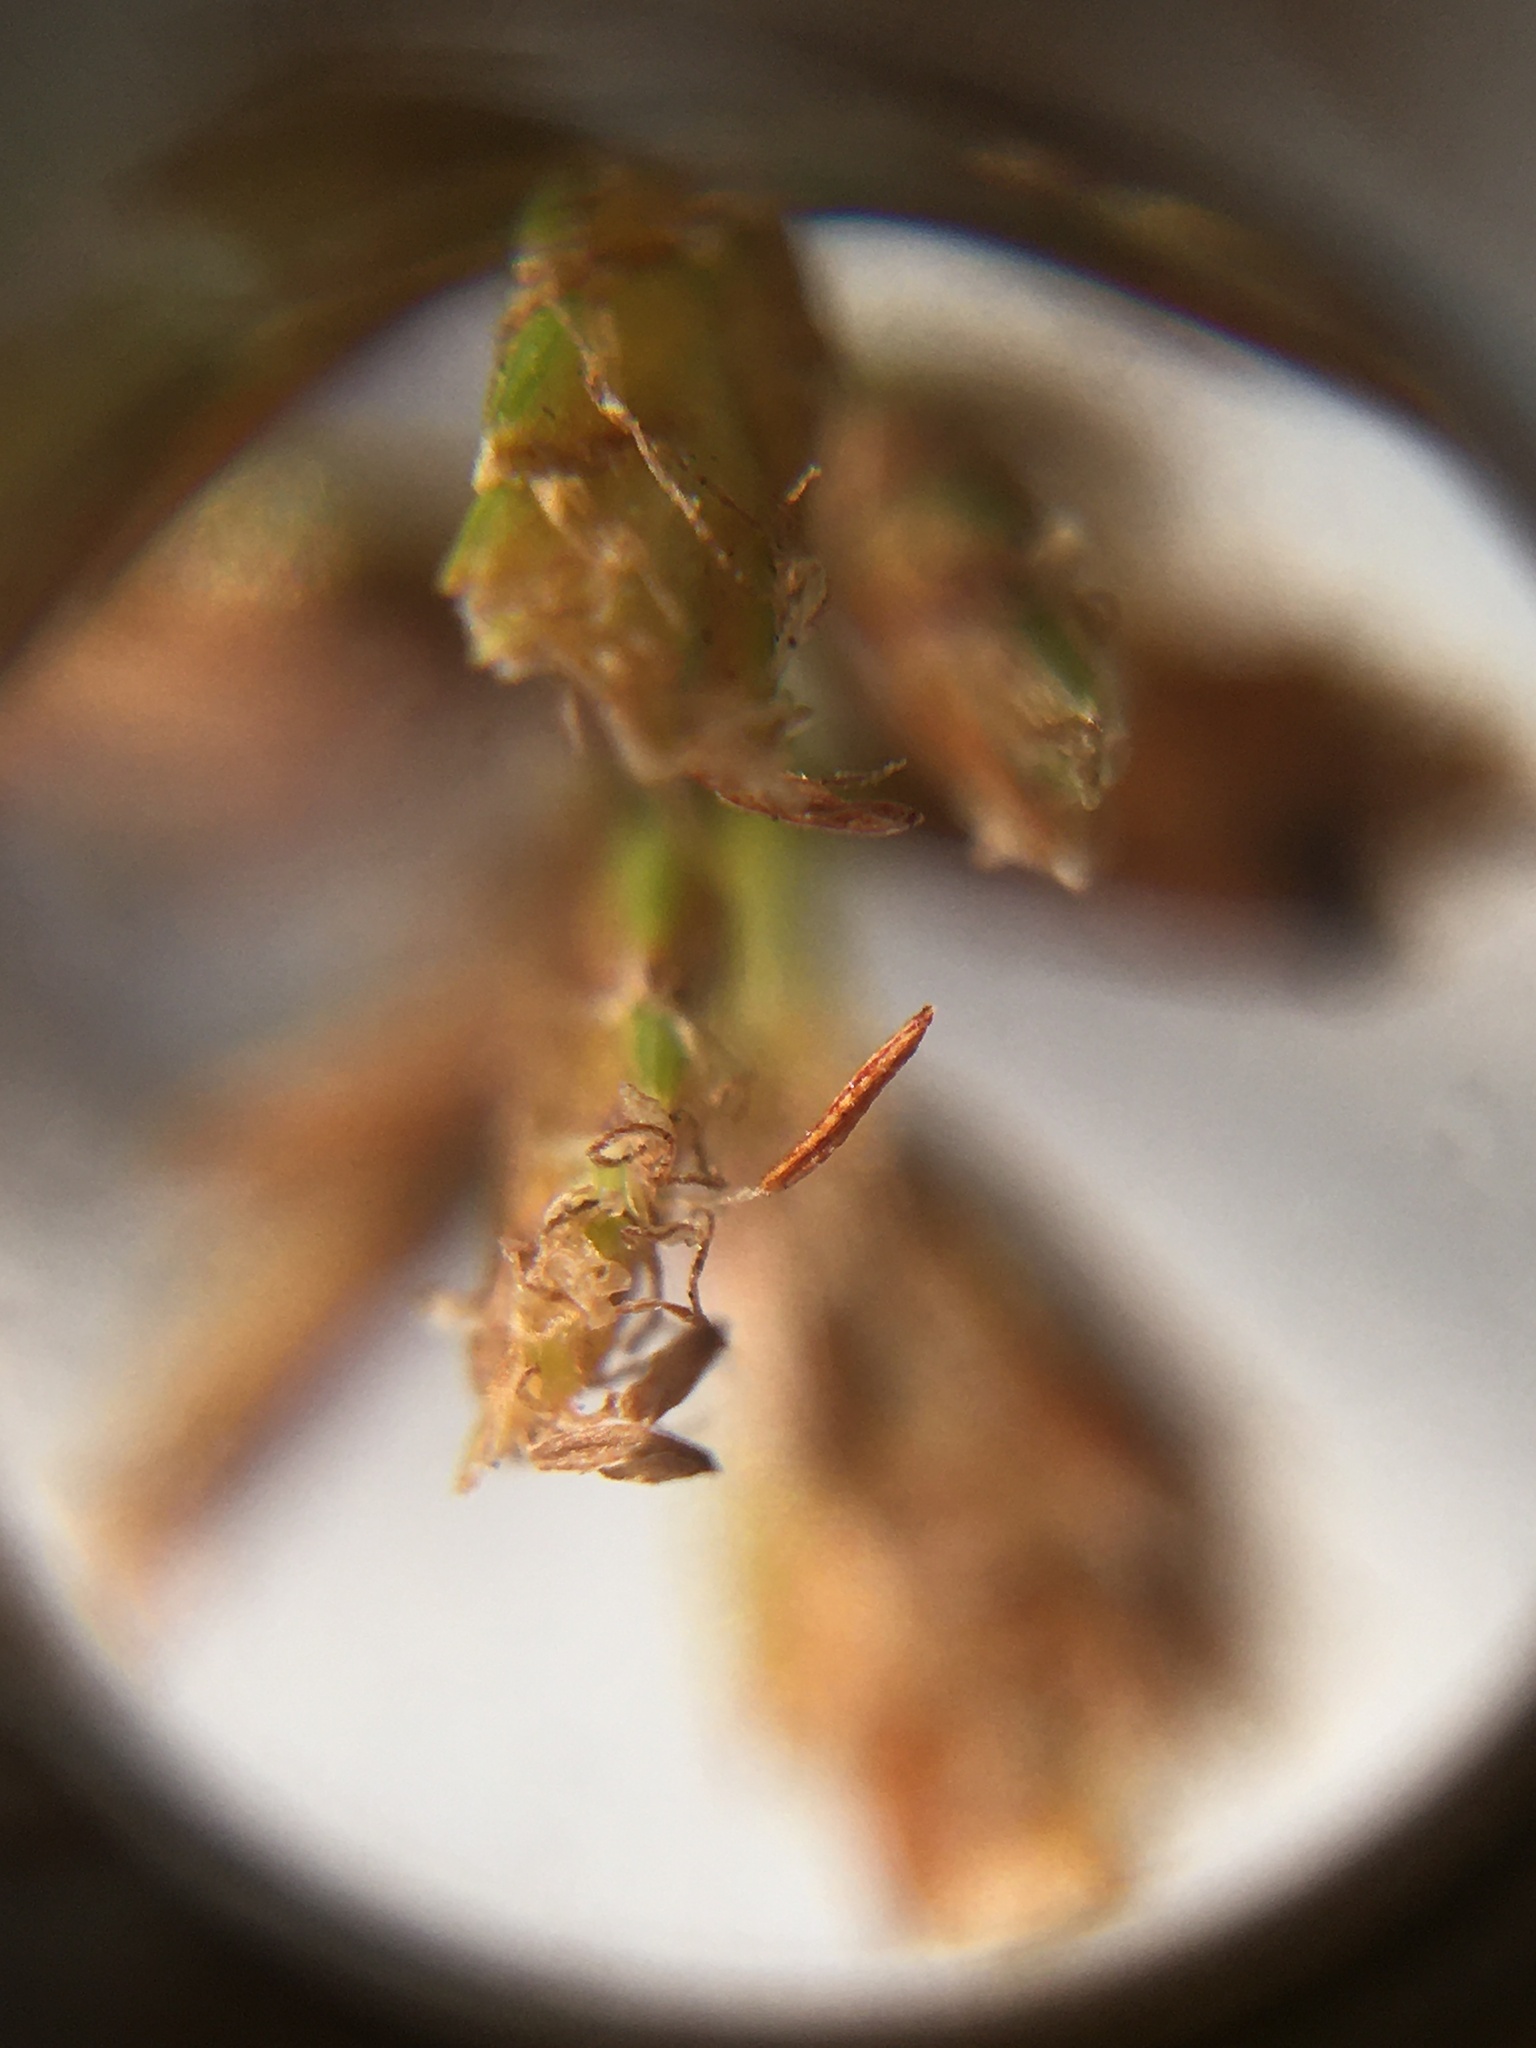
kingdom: Plantae
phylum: Tracheophyta
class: Liliopsida
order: Poales
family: Cyperaceae
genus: Cyperus
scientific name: Cyperus dives
